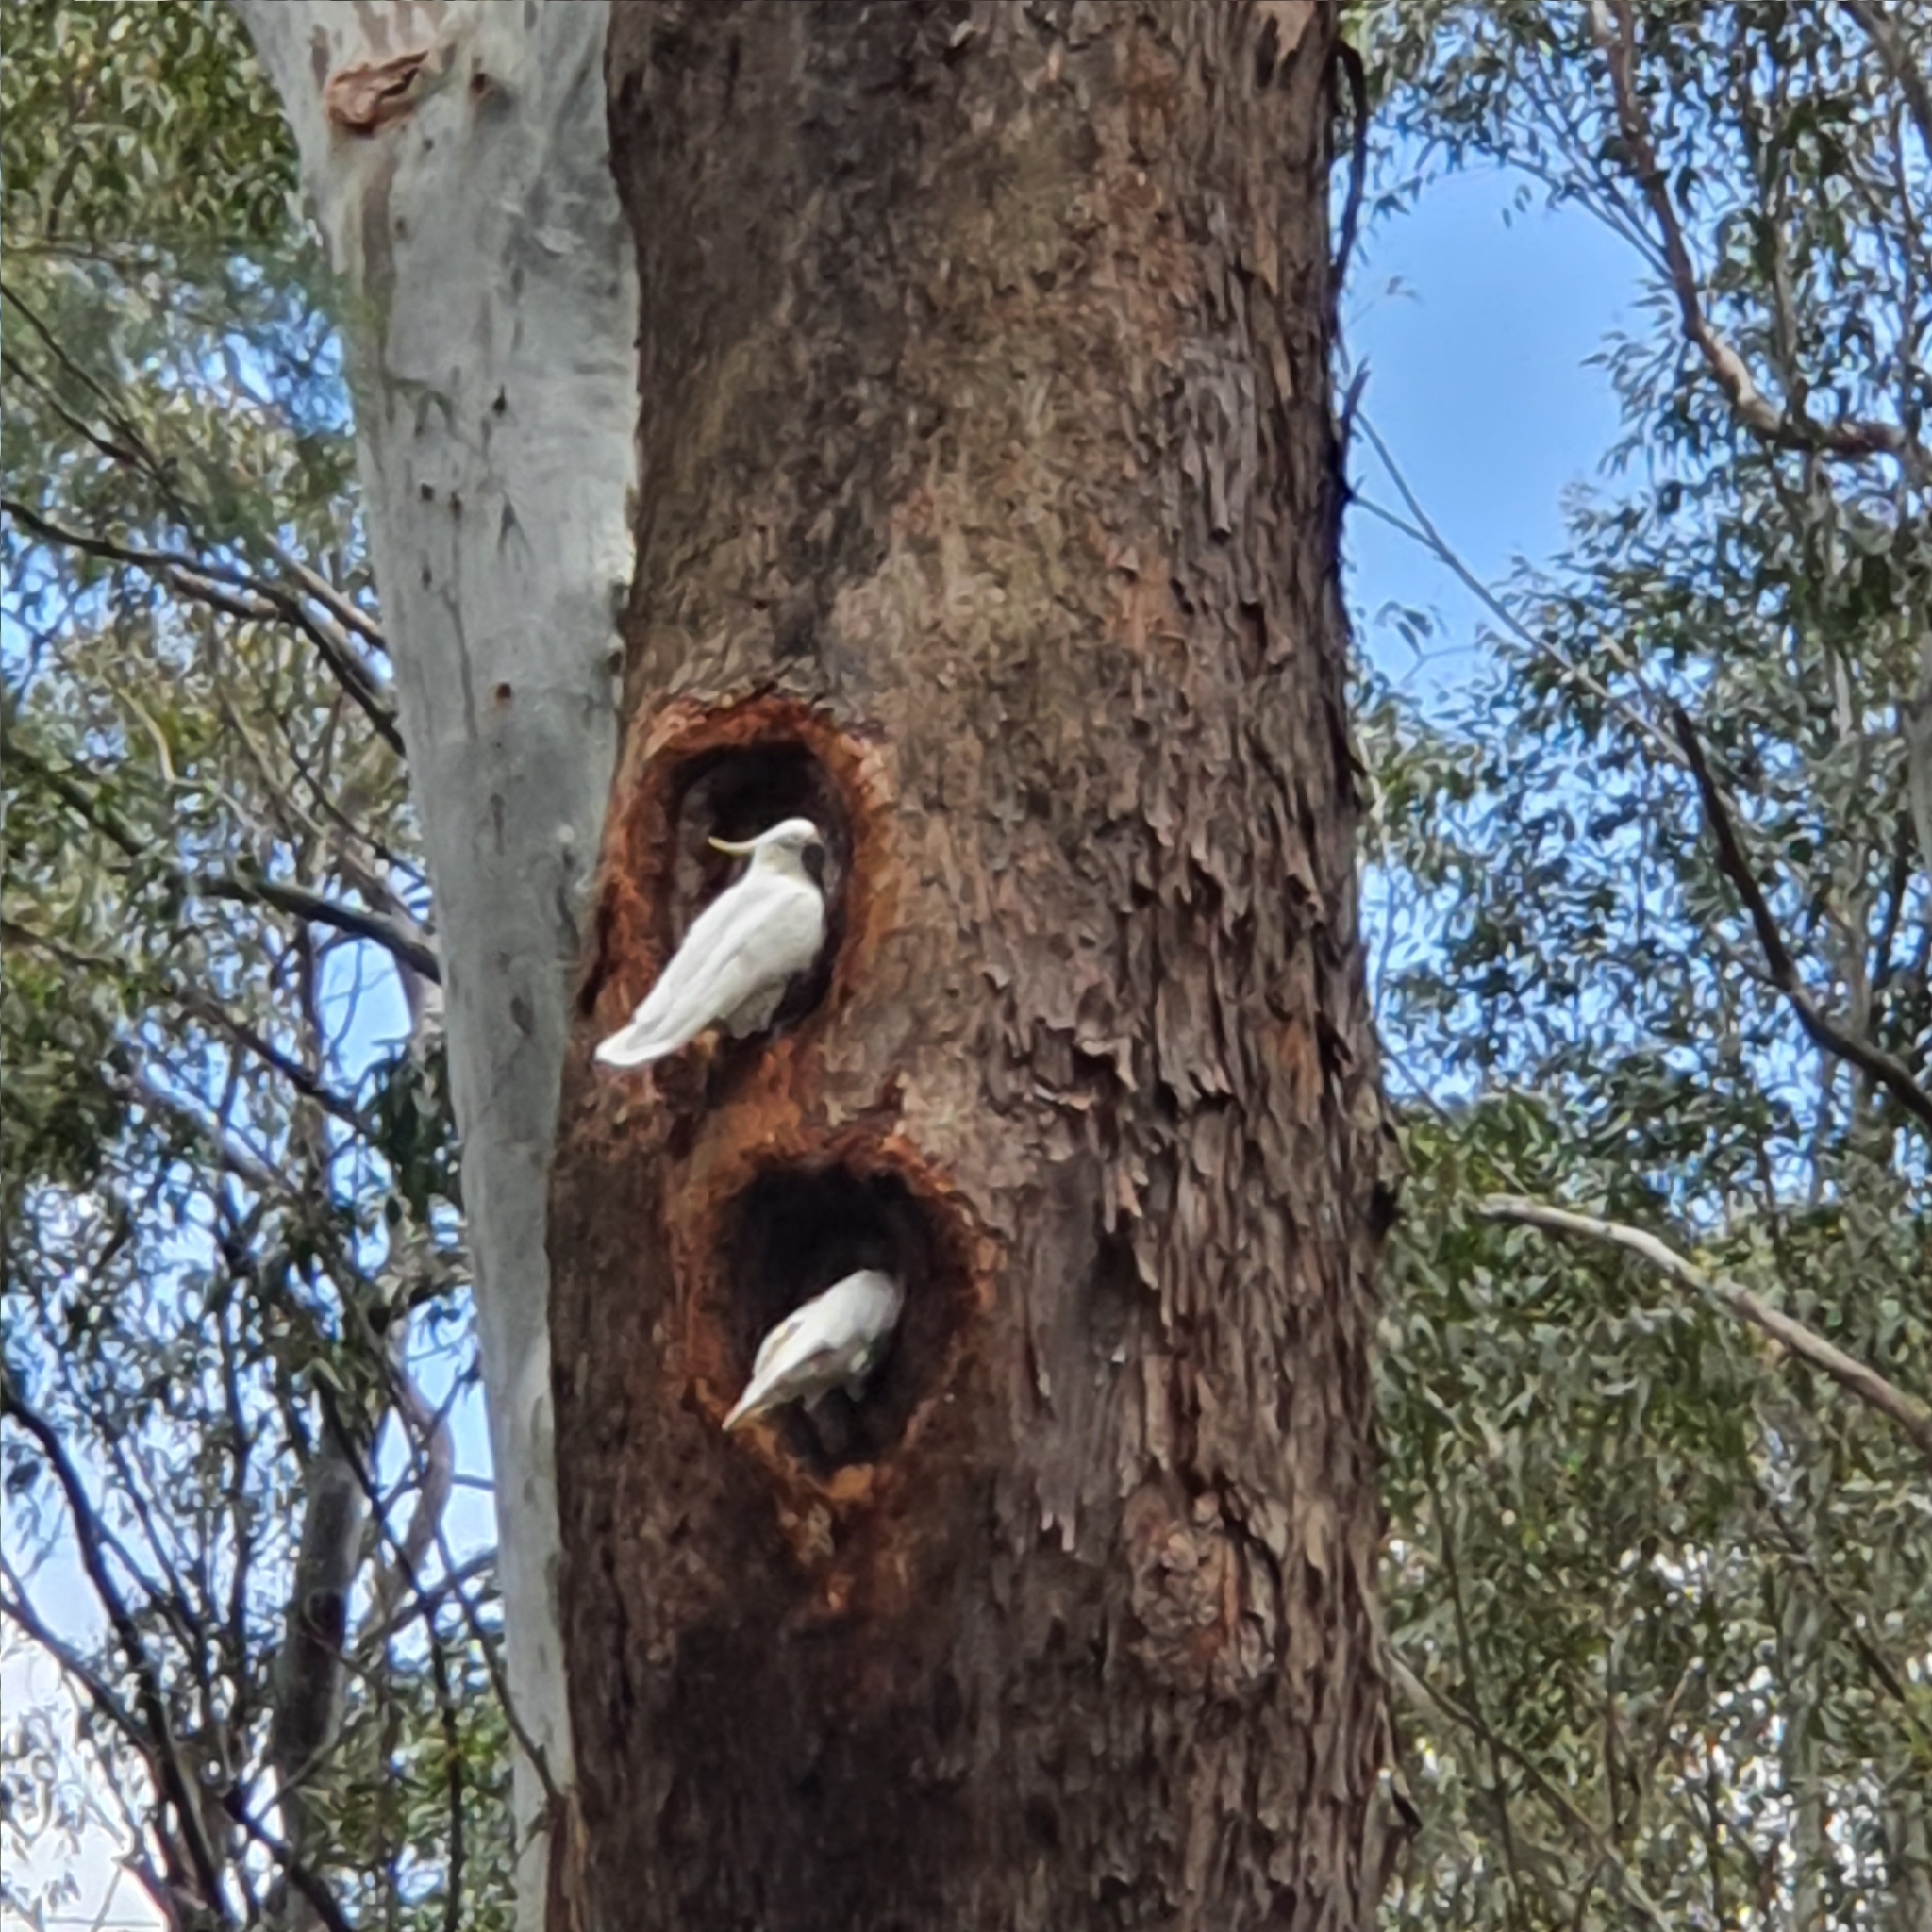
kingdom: Animalia
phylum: Chordata
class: Aves
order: Psittaciformes
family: Psittacidae
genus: Cacatua
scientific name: Cacatua galerita
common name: Sulphur-crested cockatoo
